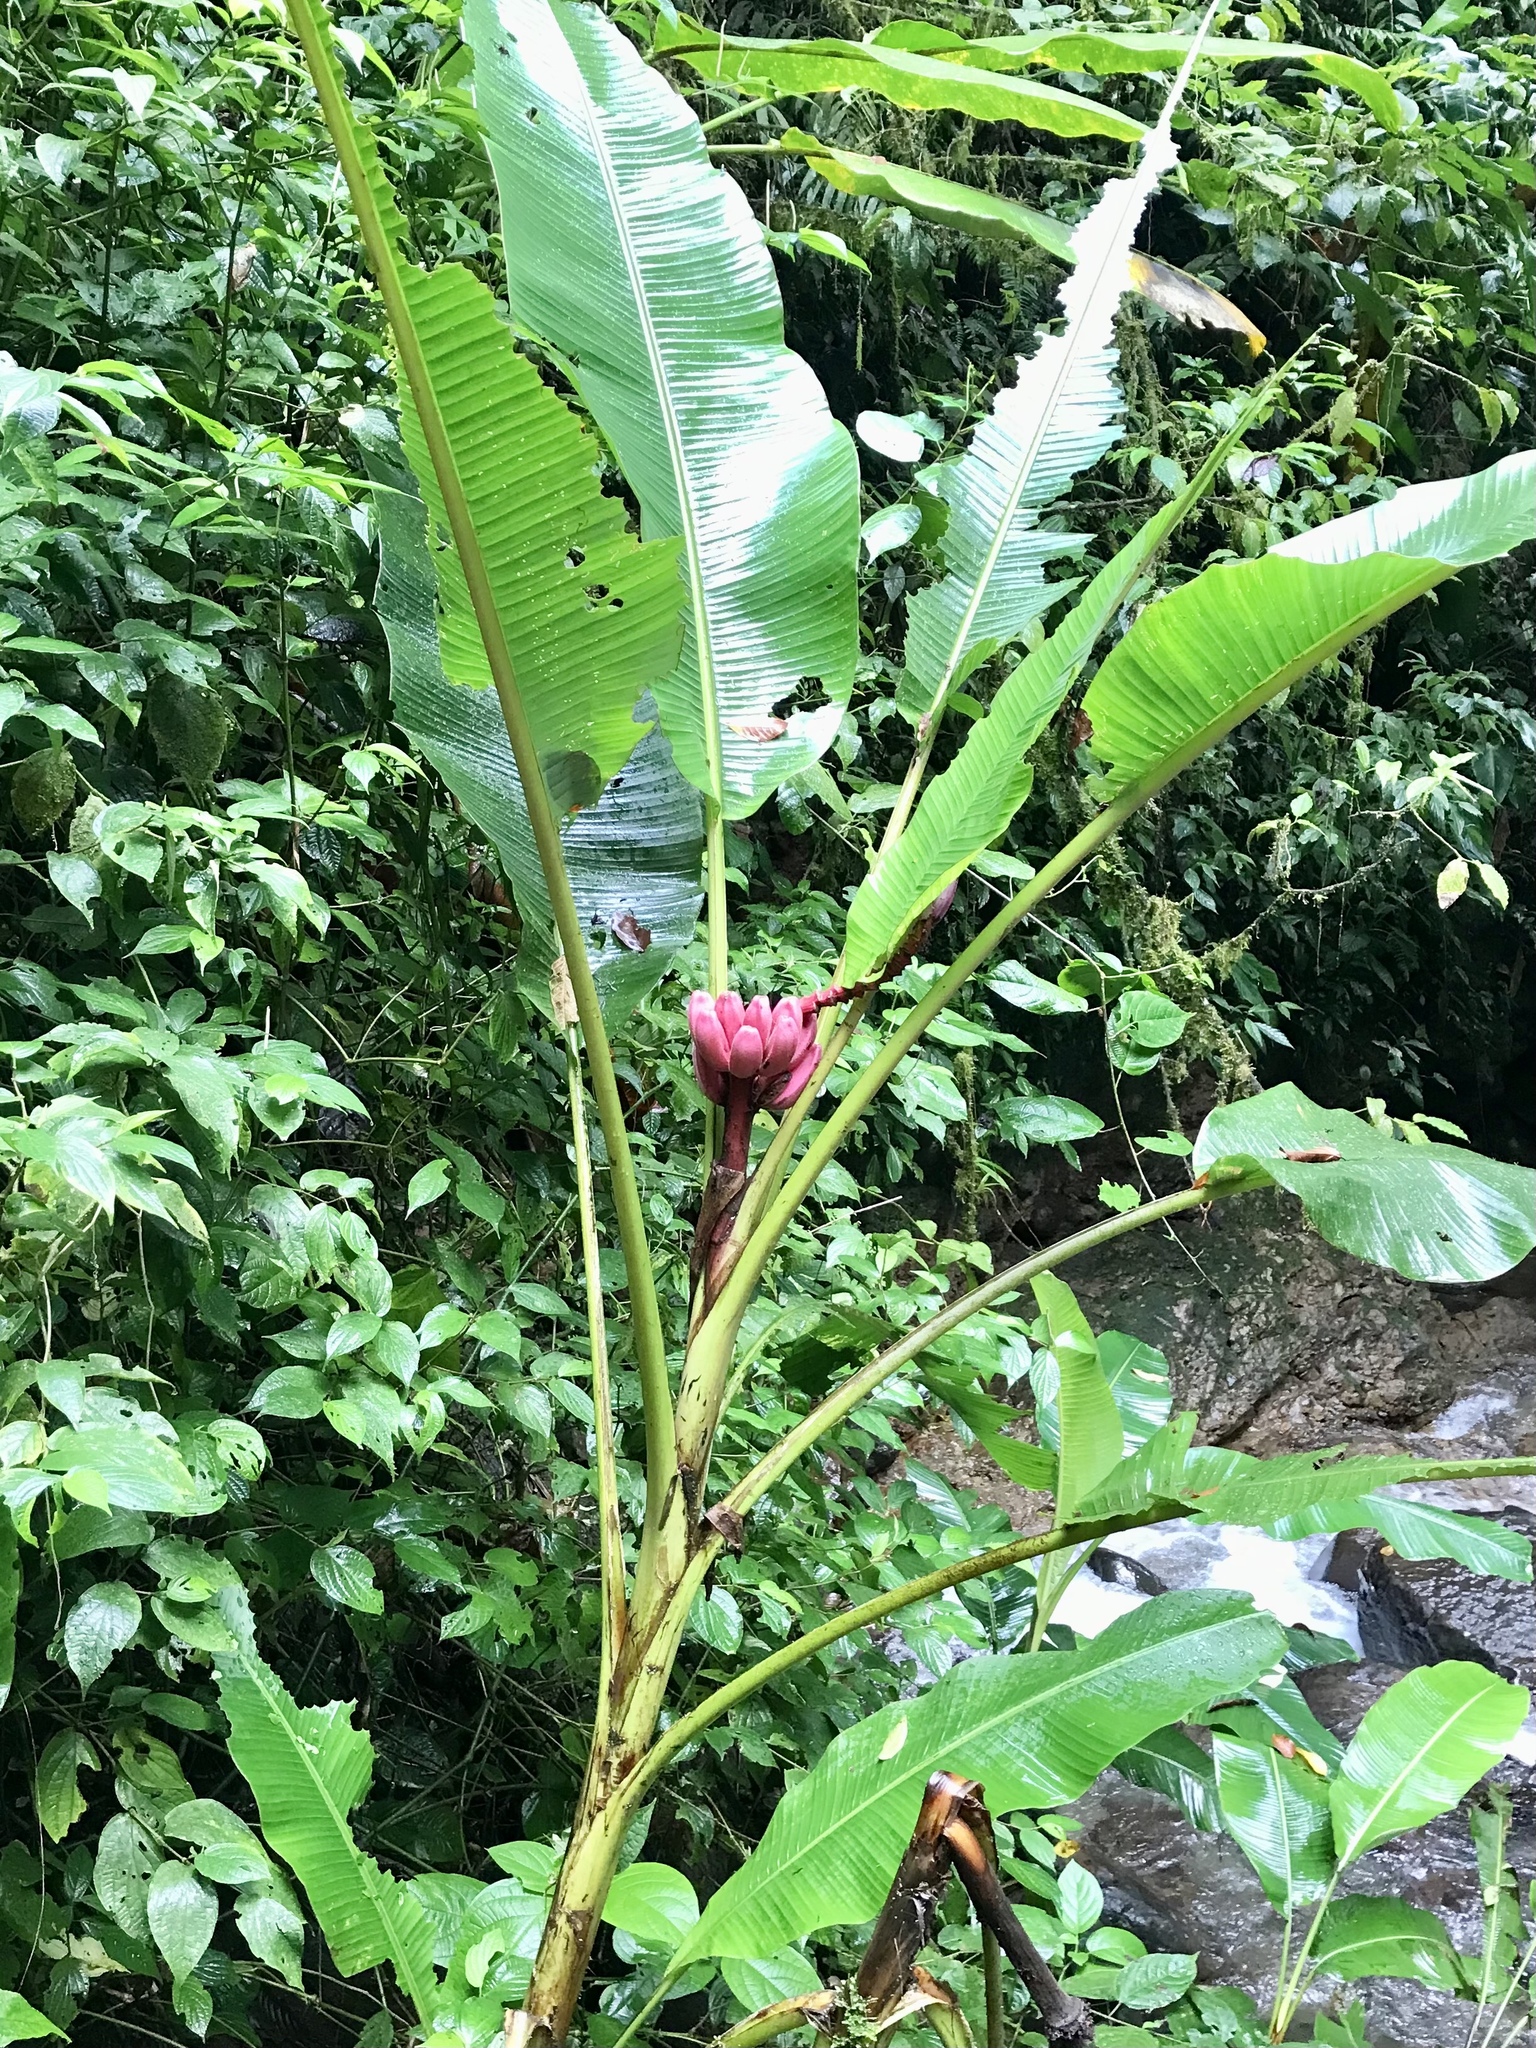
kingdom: Plantae
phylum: Tracheophyta
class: Liliopsida
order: Zingiberales
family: Musaceae
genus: Musa
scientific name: Musa velutina
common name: Pink velvet banana
